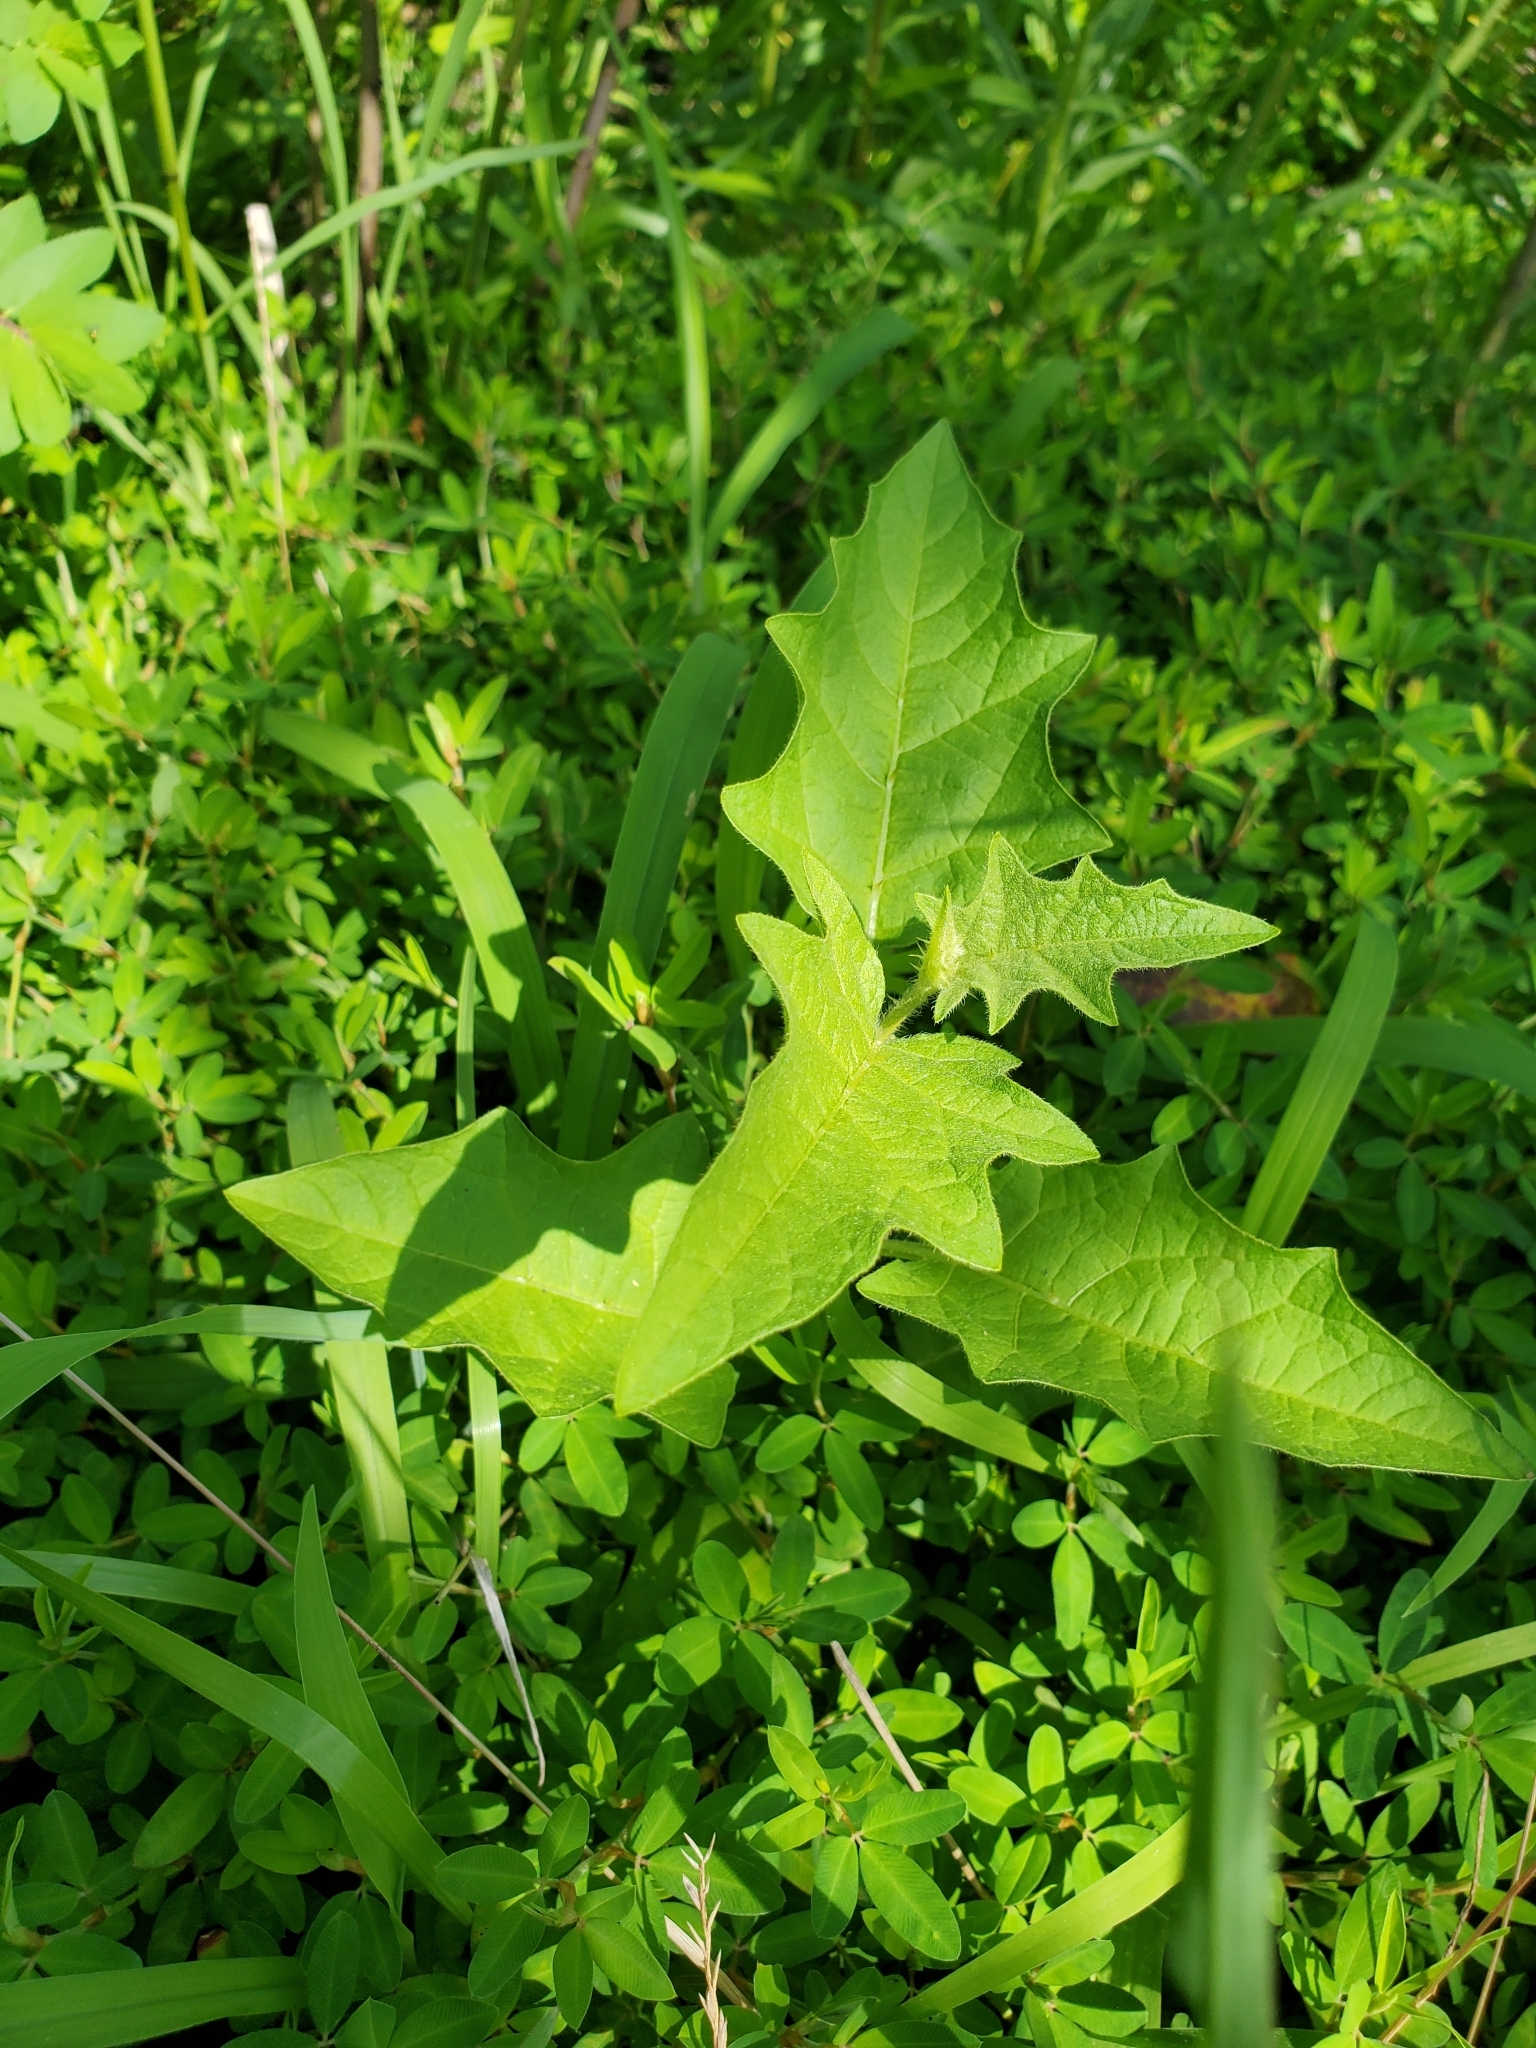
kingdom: Plantae
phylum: Tracheophyta
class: Magnoliopsida
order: Solanales
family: Solanaceae
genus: Solanum
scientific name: Solanum carolinense
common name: Horse-nettle
